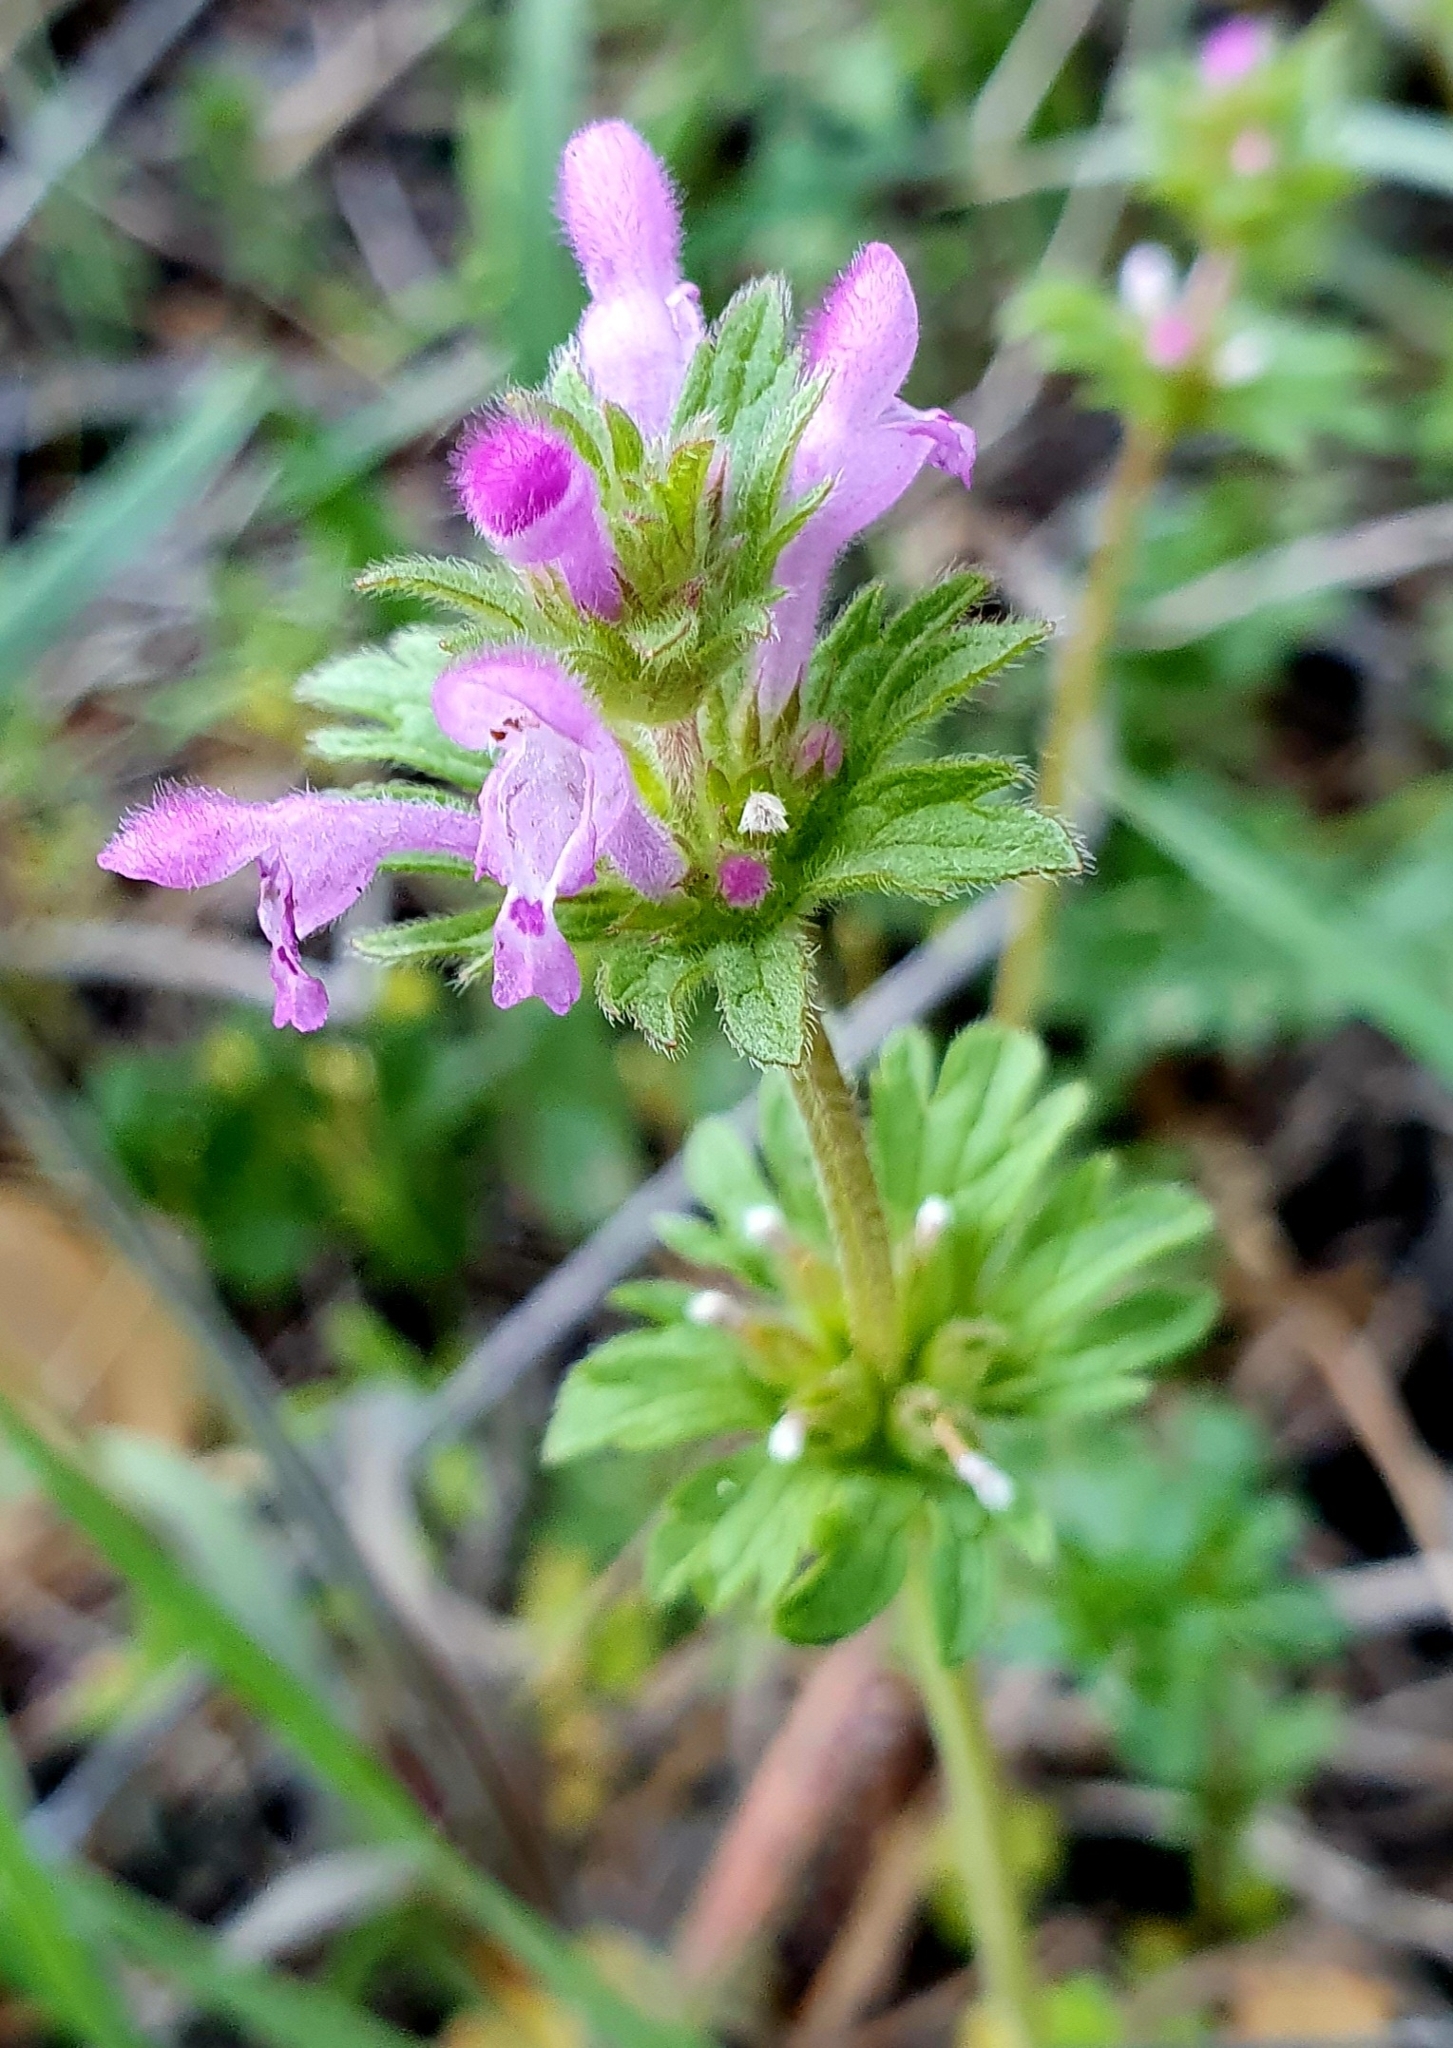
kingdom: Plantae
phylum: Tracheophyta
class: Magnoliopsida
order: Lamiales
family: Lamiaceae
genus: Lamium
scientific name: Lamium amplexicaule
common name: Henbit dead-nettle
